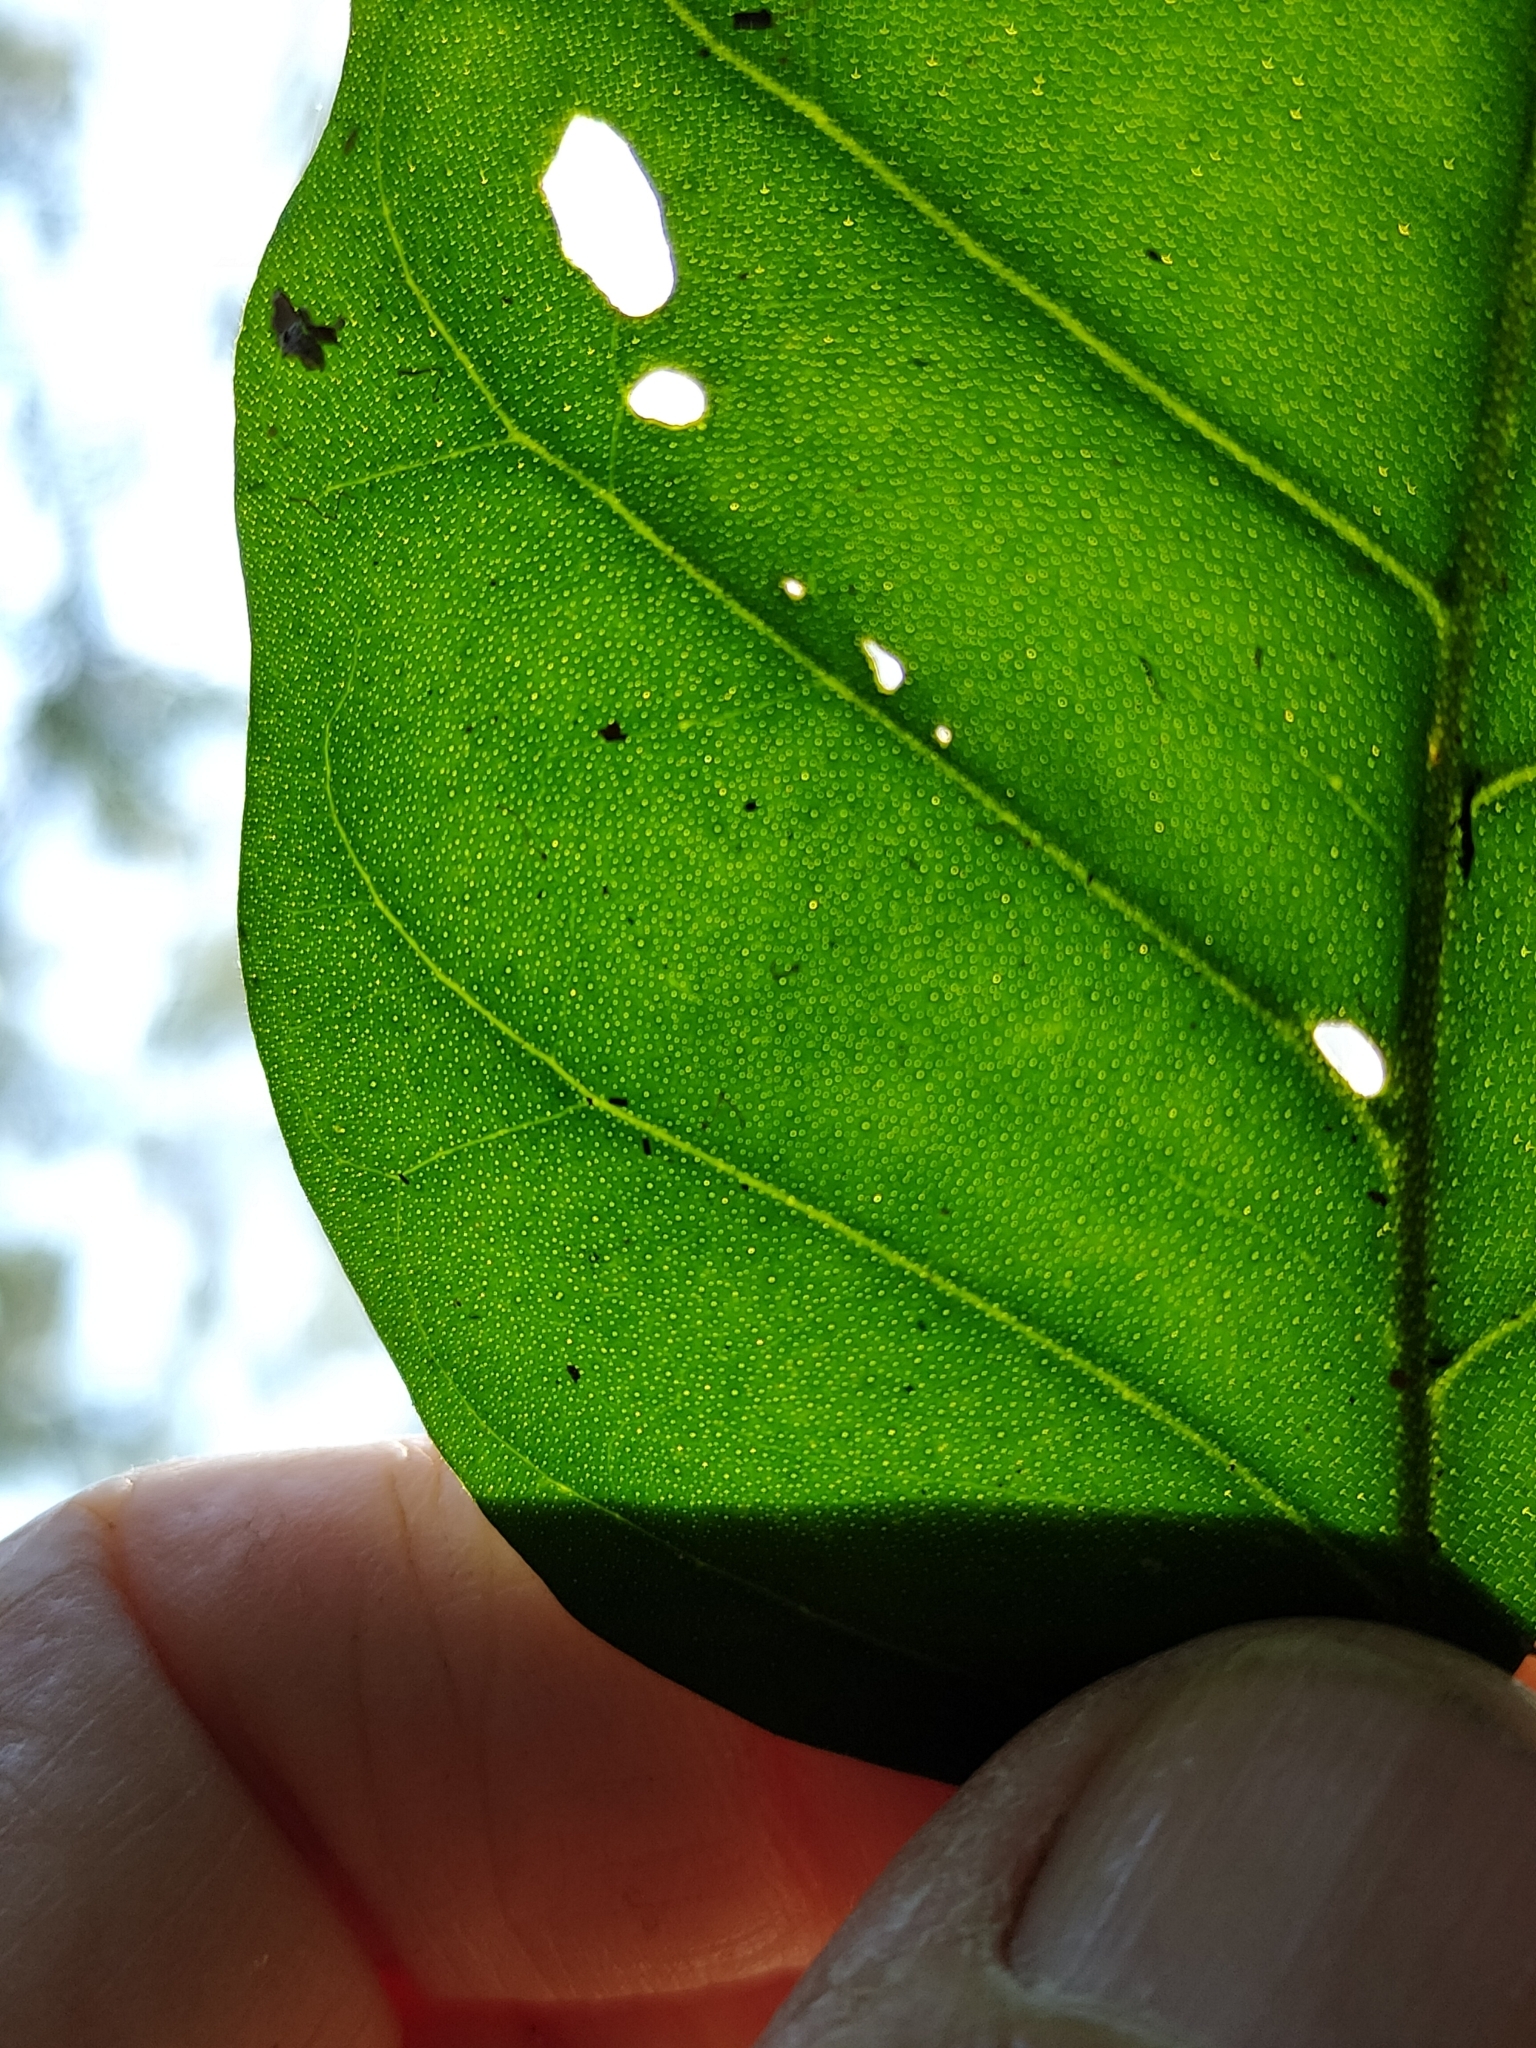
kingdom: Plantae
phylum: Tracheophyta
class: Magnoliopsida
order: Sapindales
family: Rutaceae
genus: Micromelum
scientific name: Micromelum minutum
